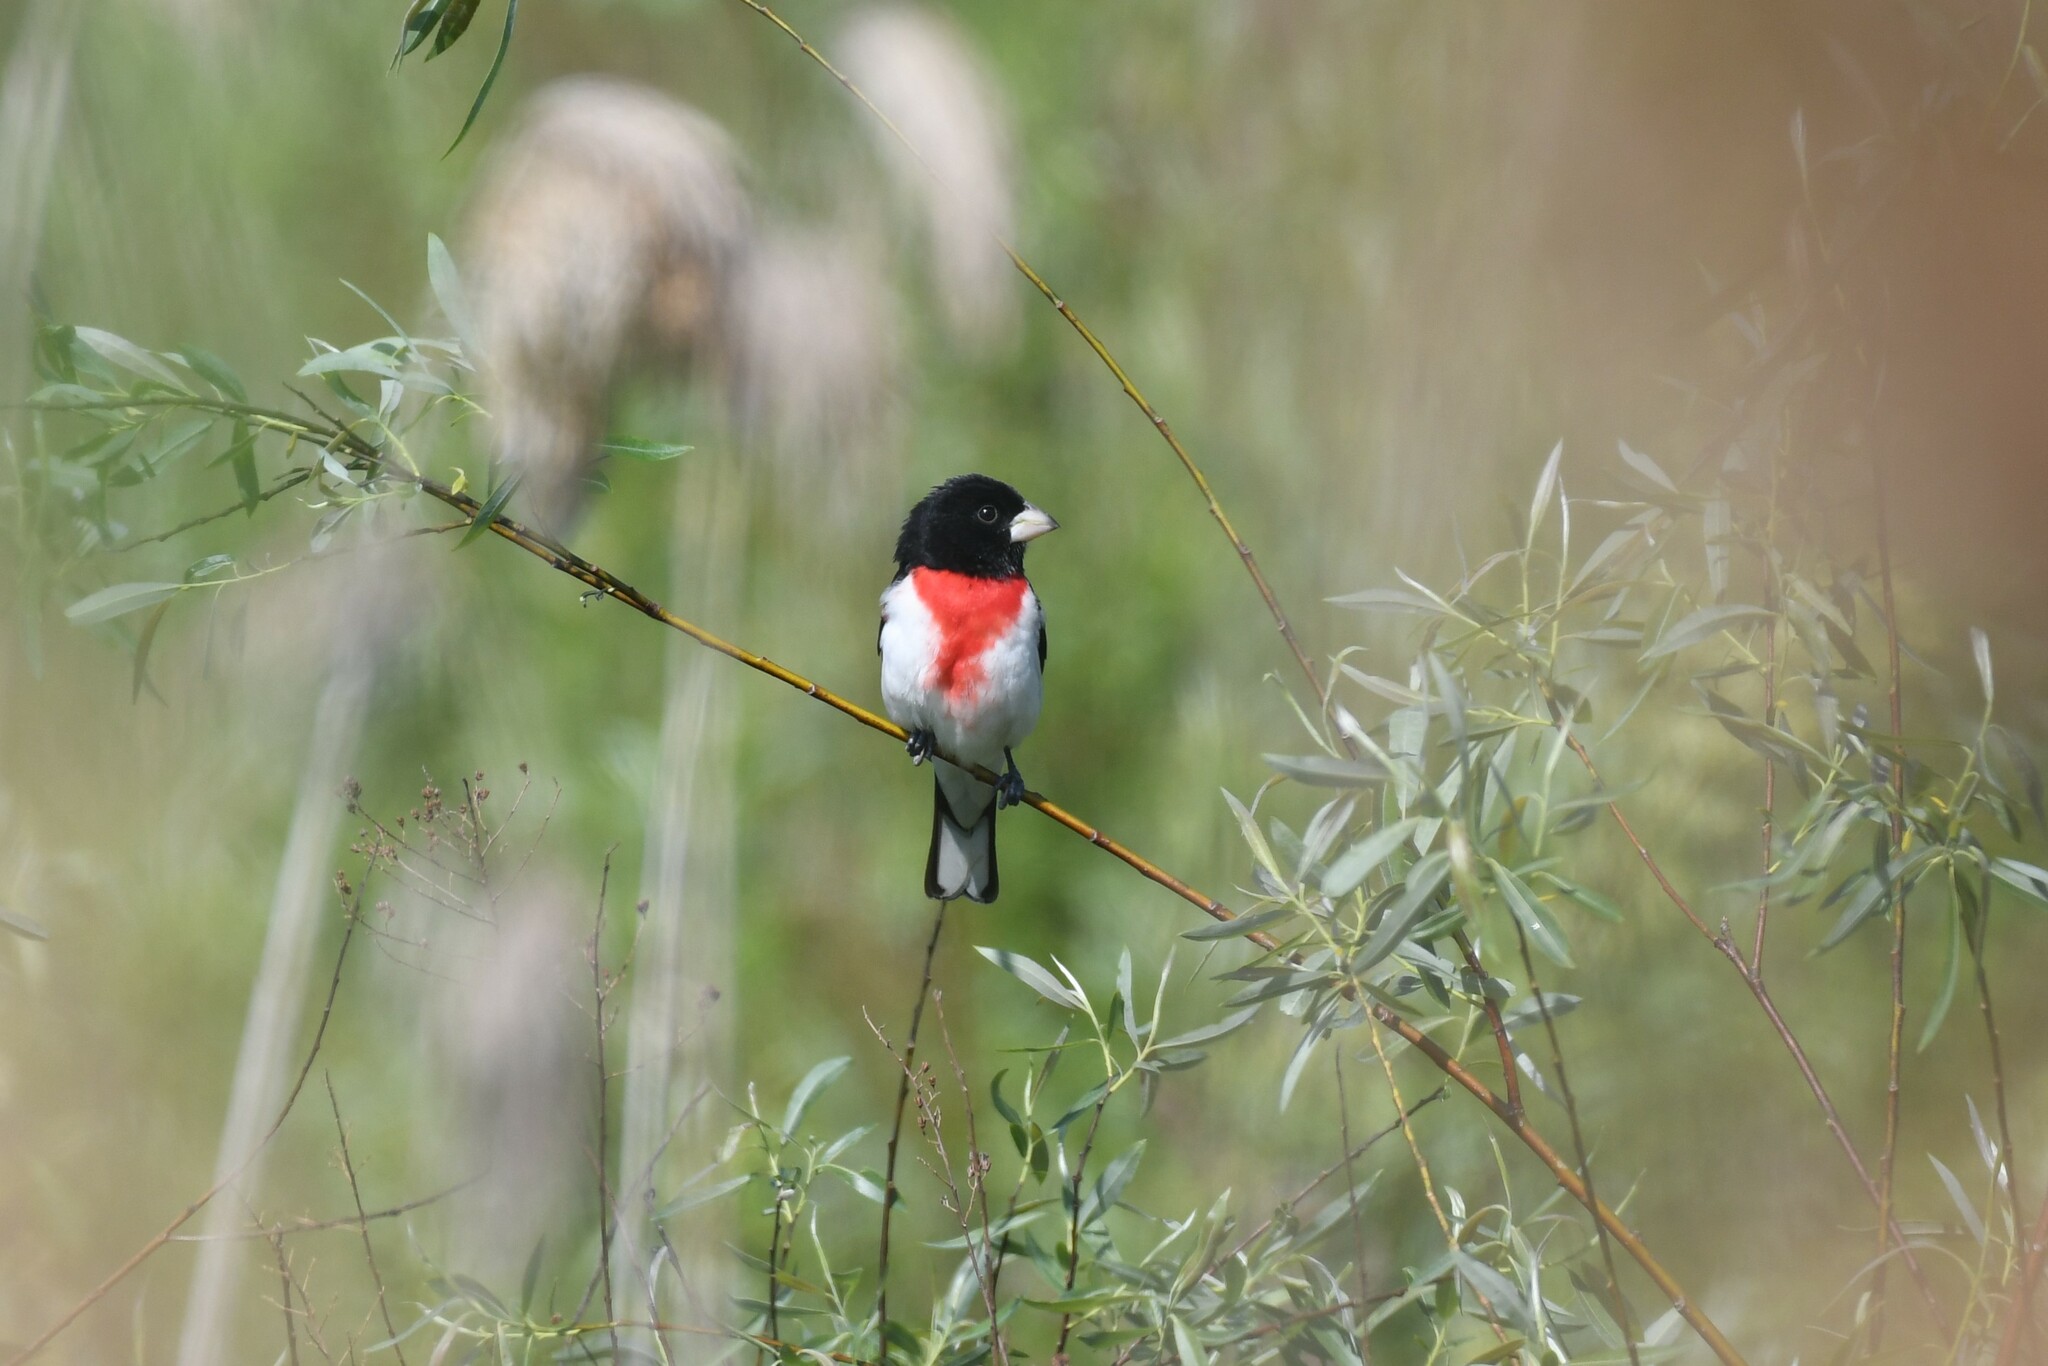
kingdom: Animalia
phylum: Chordata
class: Aves
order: Passeriformes
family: Cardinalidae
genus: Pheucticus
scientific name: Pheucticus ludovicianus
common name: Rose-breasted grosbeak
